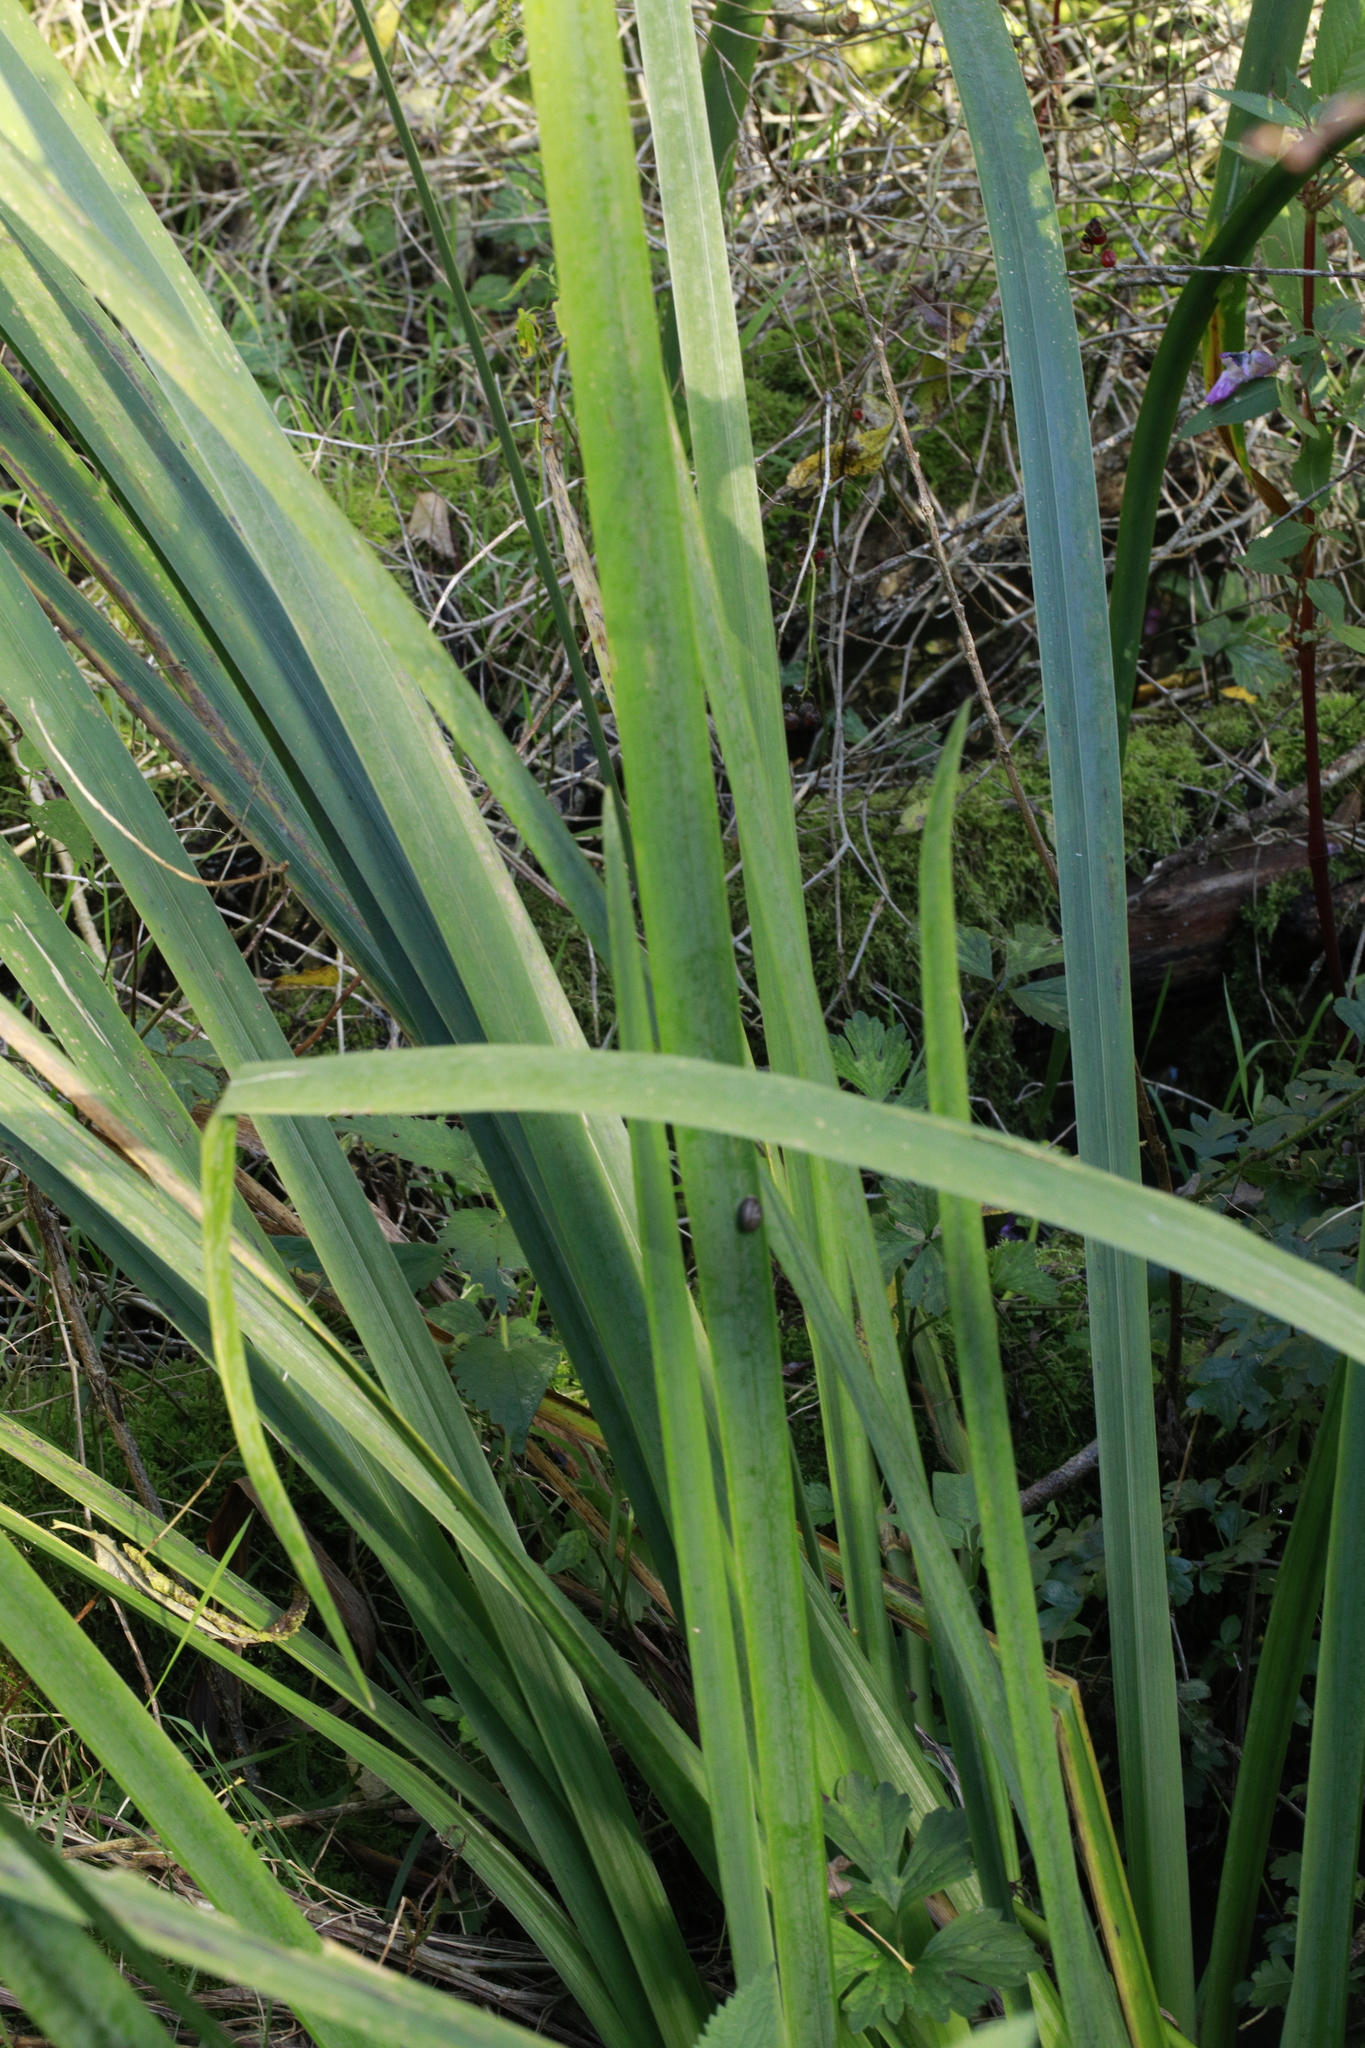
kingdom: Plantae
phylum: Tracheophyta
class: Liliopsida
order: Asparagales
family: Iridaceae
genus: Iris
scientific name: Iris pseudacorus
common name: Yellow flag
